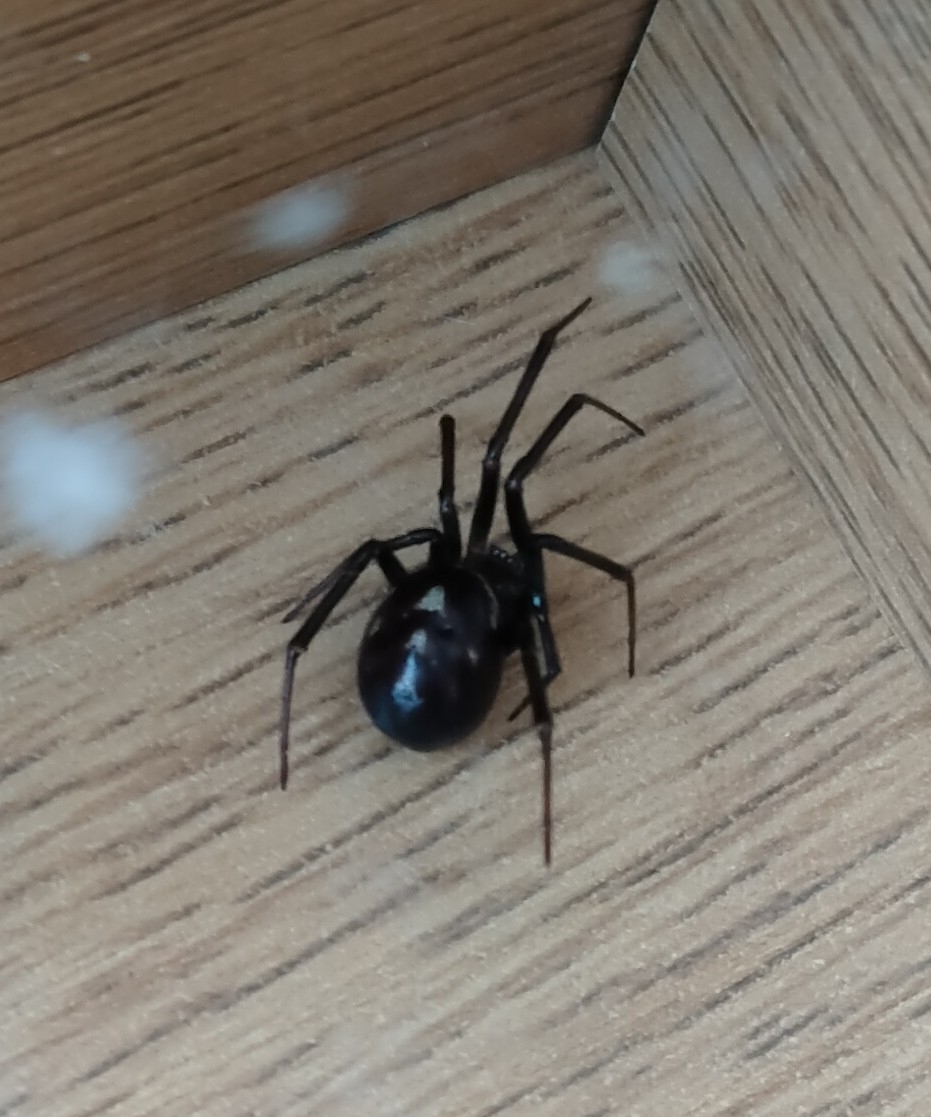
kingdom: Animalia
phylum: Arthropoda
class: Arachnida
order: Araneae
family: Theridiidae
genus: Steatoda
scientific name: Steatoda grossa
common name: False black widow
